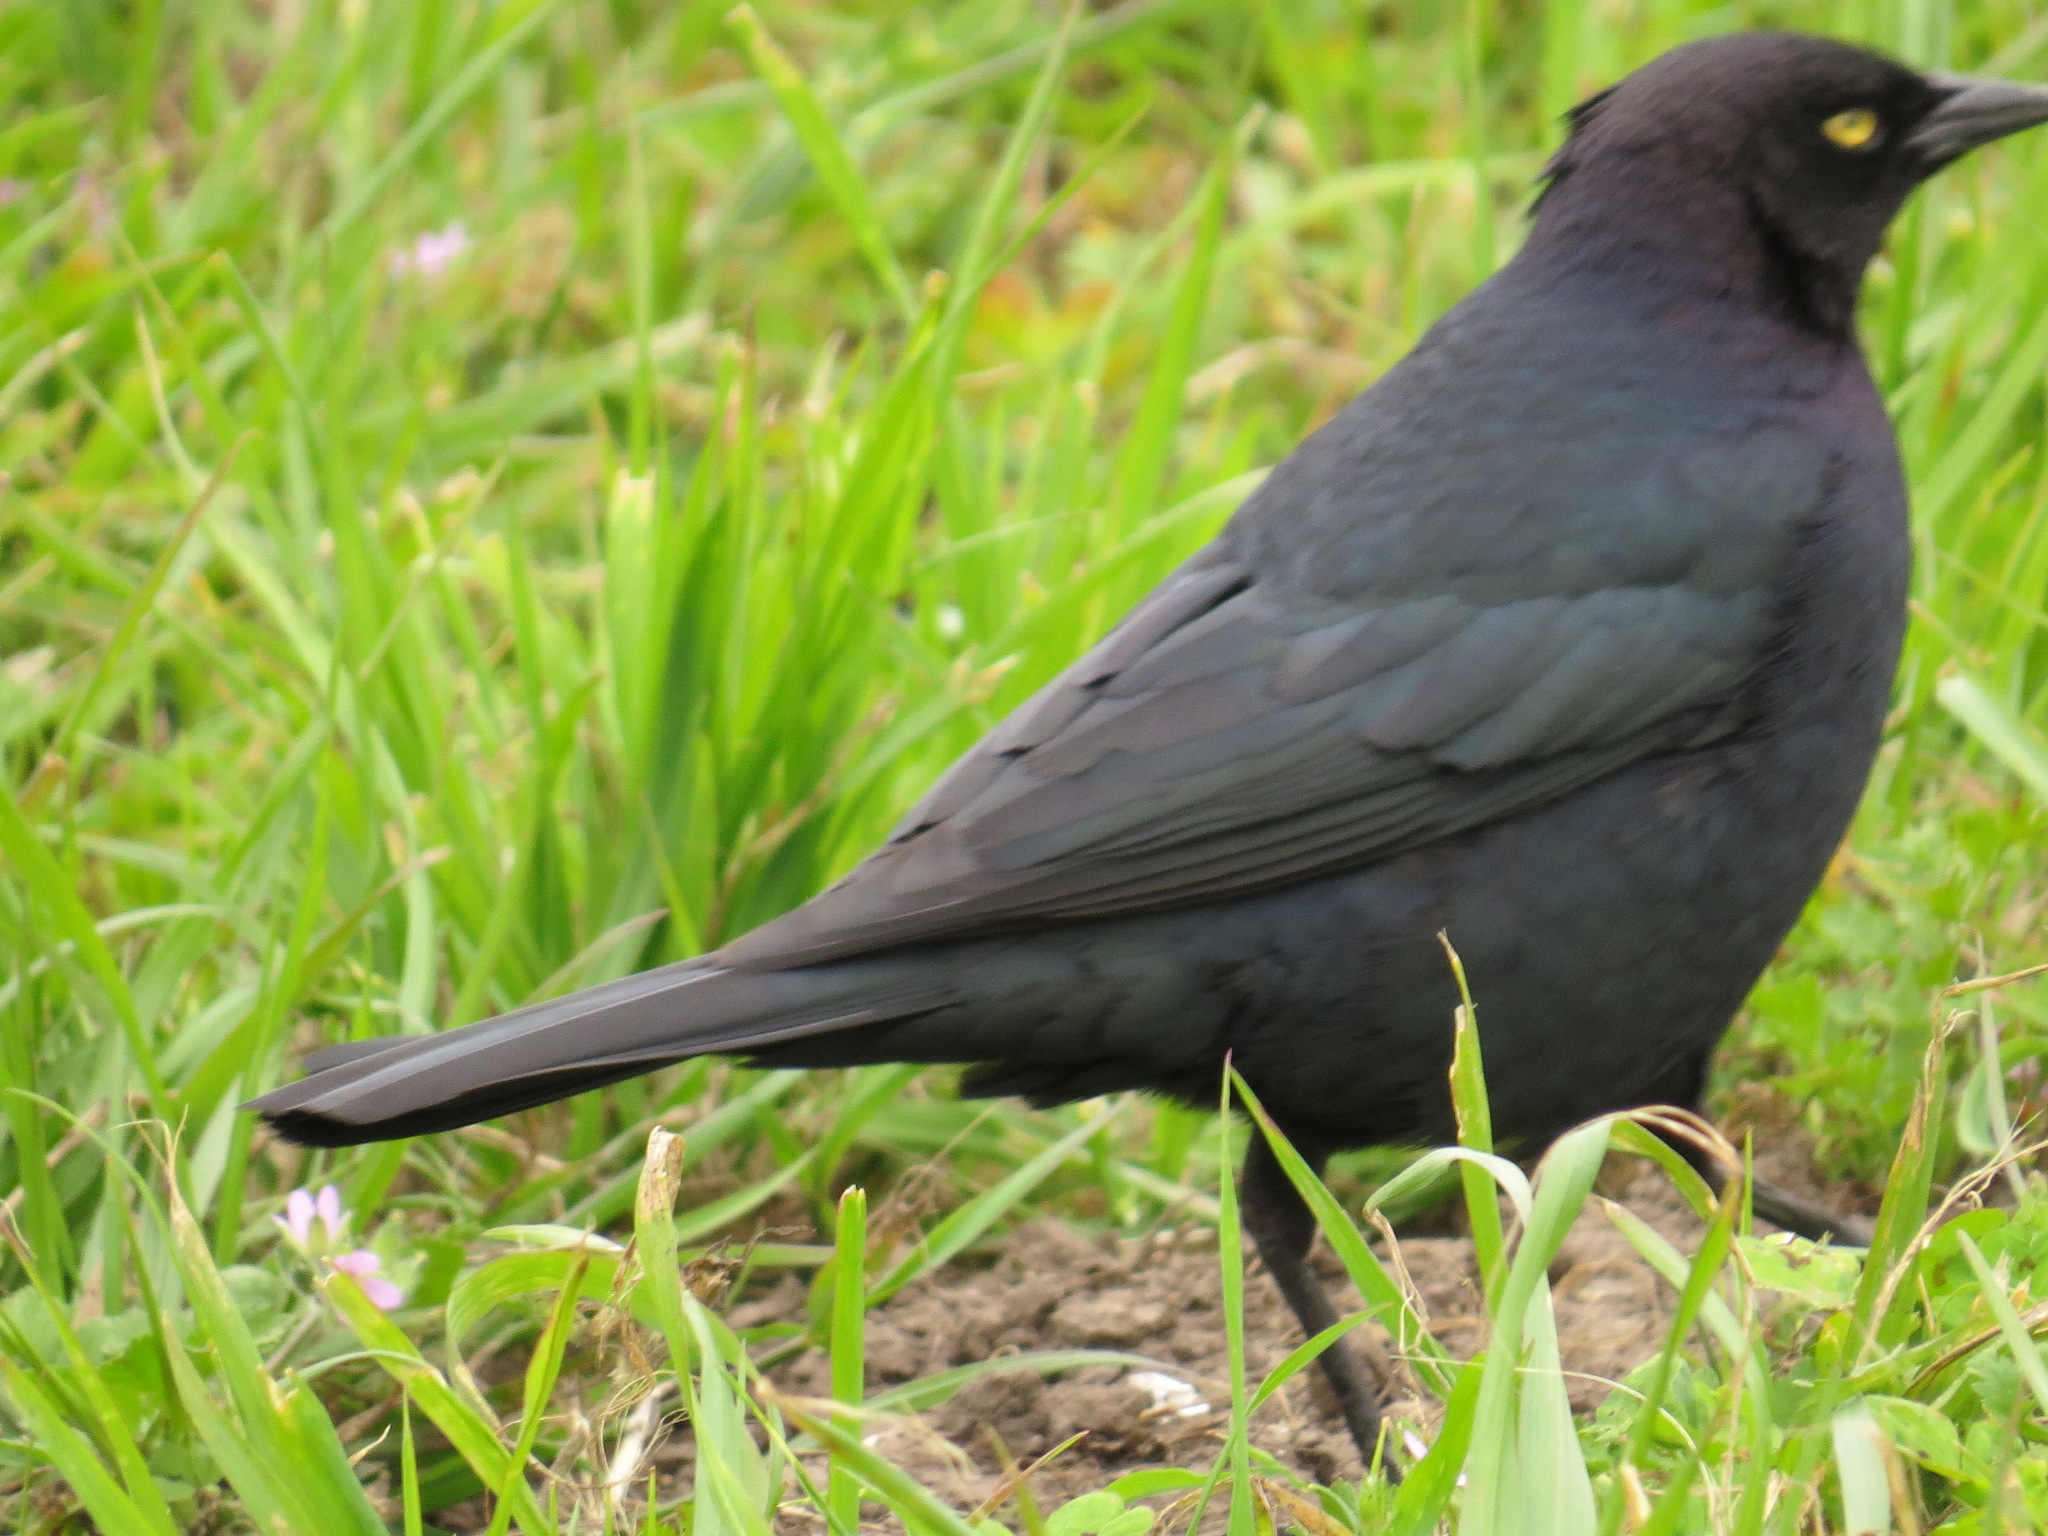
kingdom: Animalia
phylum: Chordata
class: Aves
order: Passeriformes
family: Icteridae
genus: Euphagus
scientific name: Euphagus cyanocephalus
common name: Brewer's blackbird
